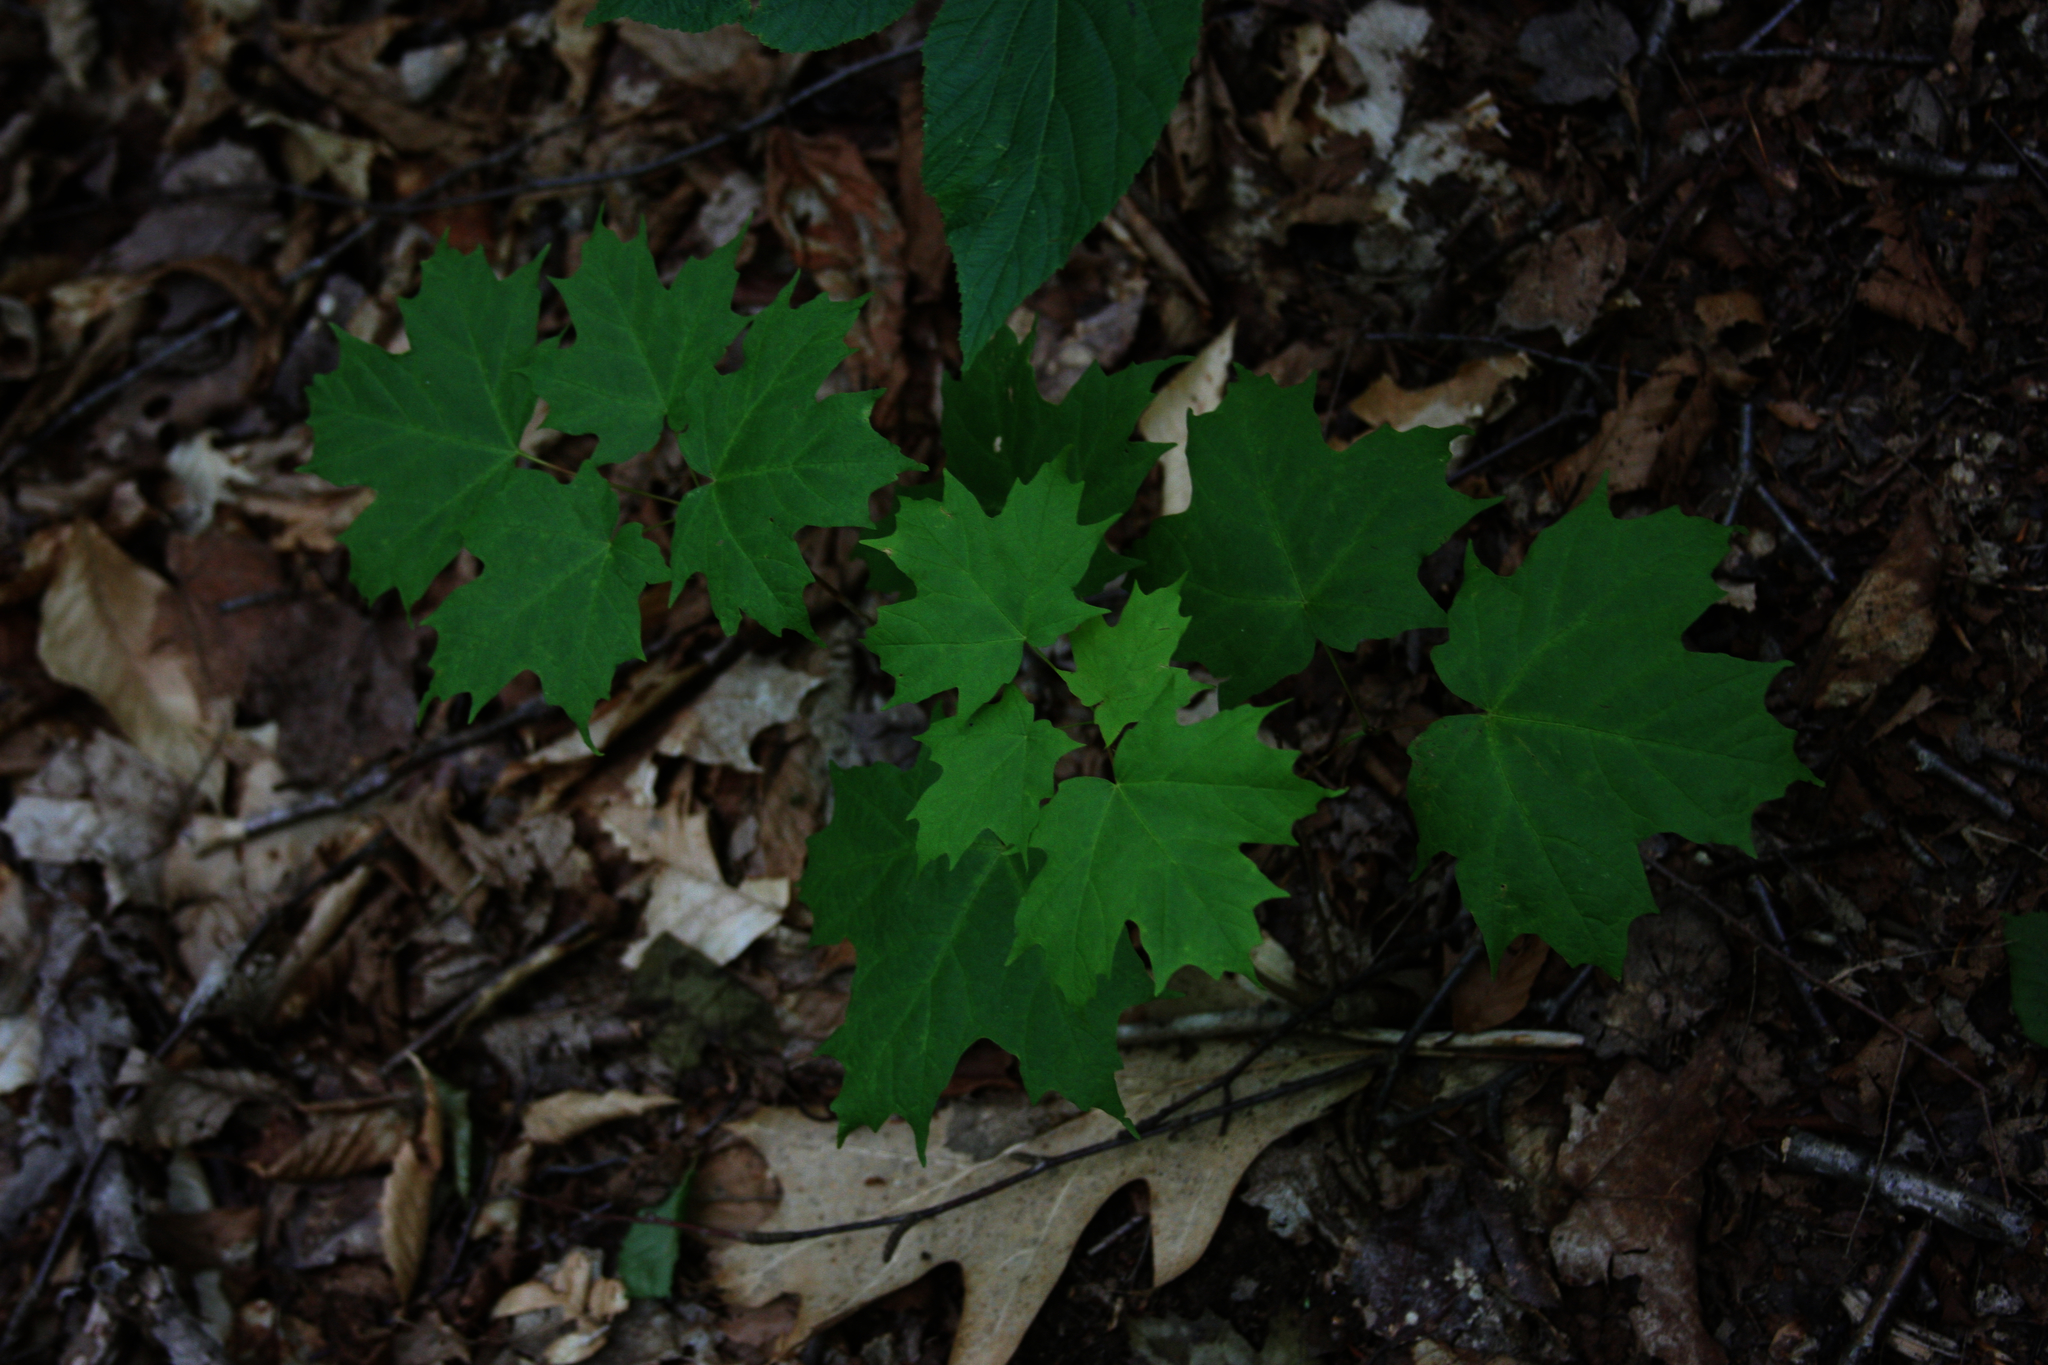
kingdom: Plantae
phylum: Tracheophyta
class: Magnoliopsida
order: Sapindales
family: Sapindaceae
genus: Acer
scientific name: Acer saccharum
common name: Sugar maple
